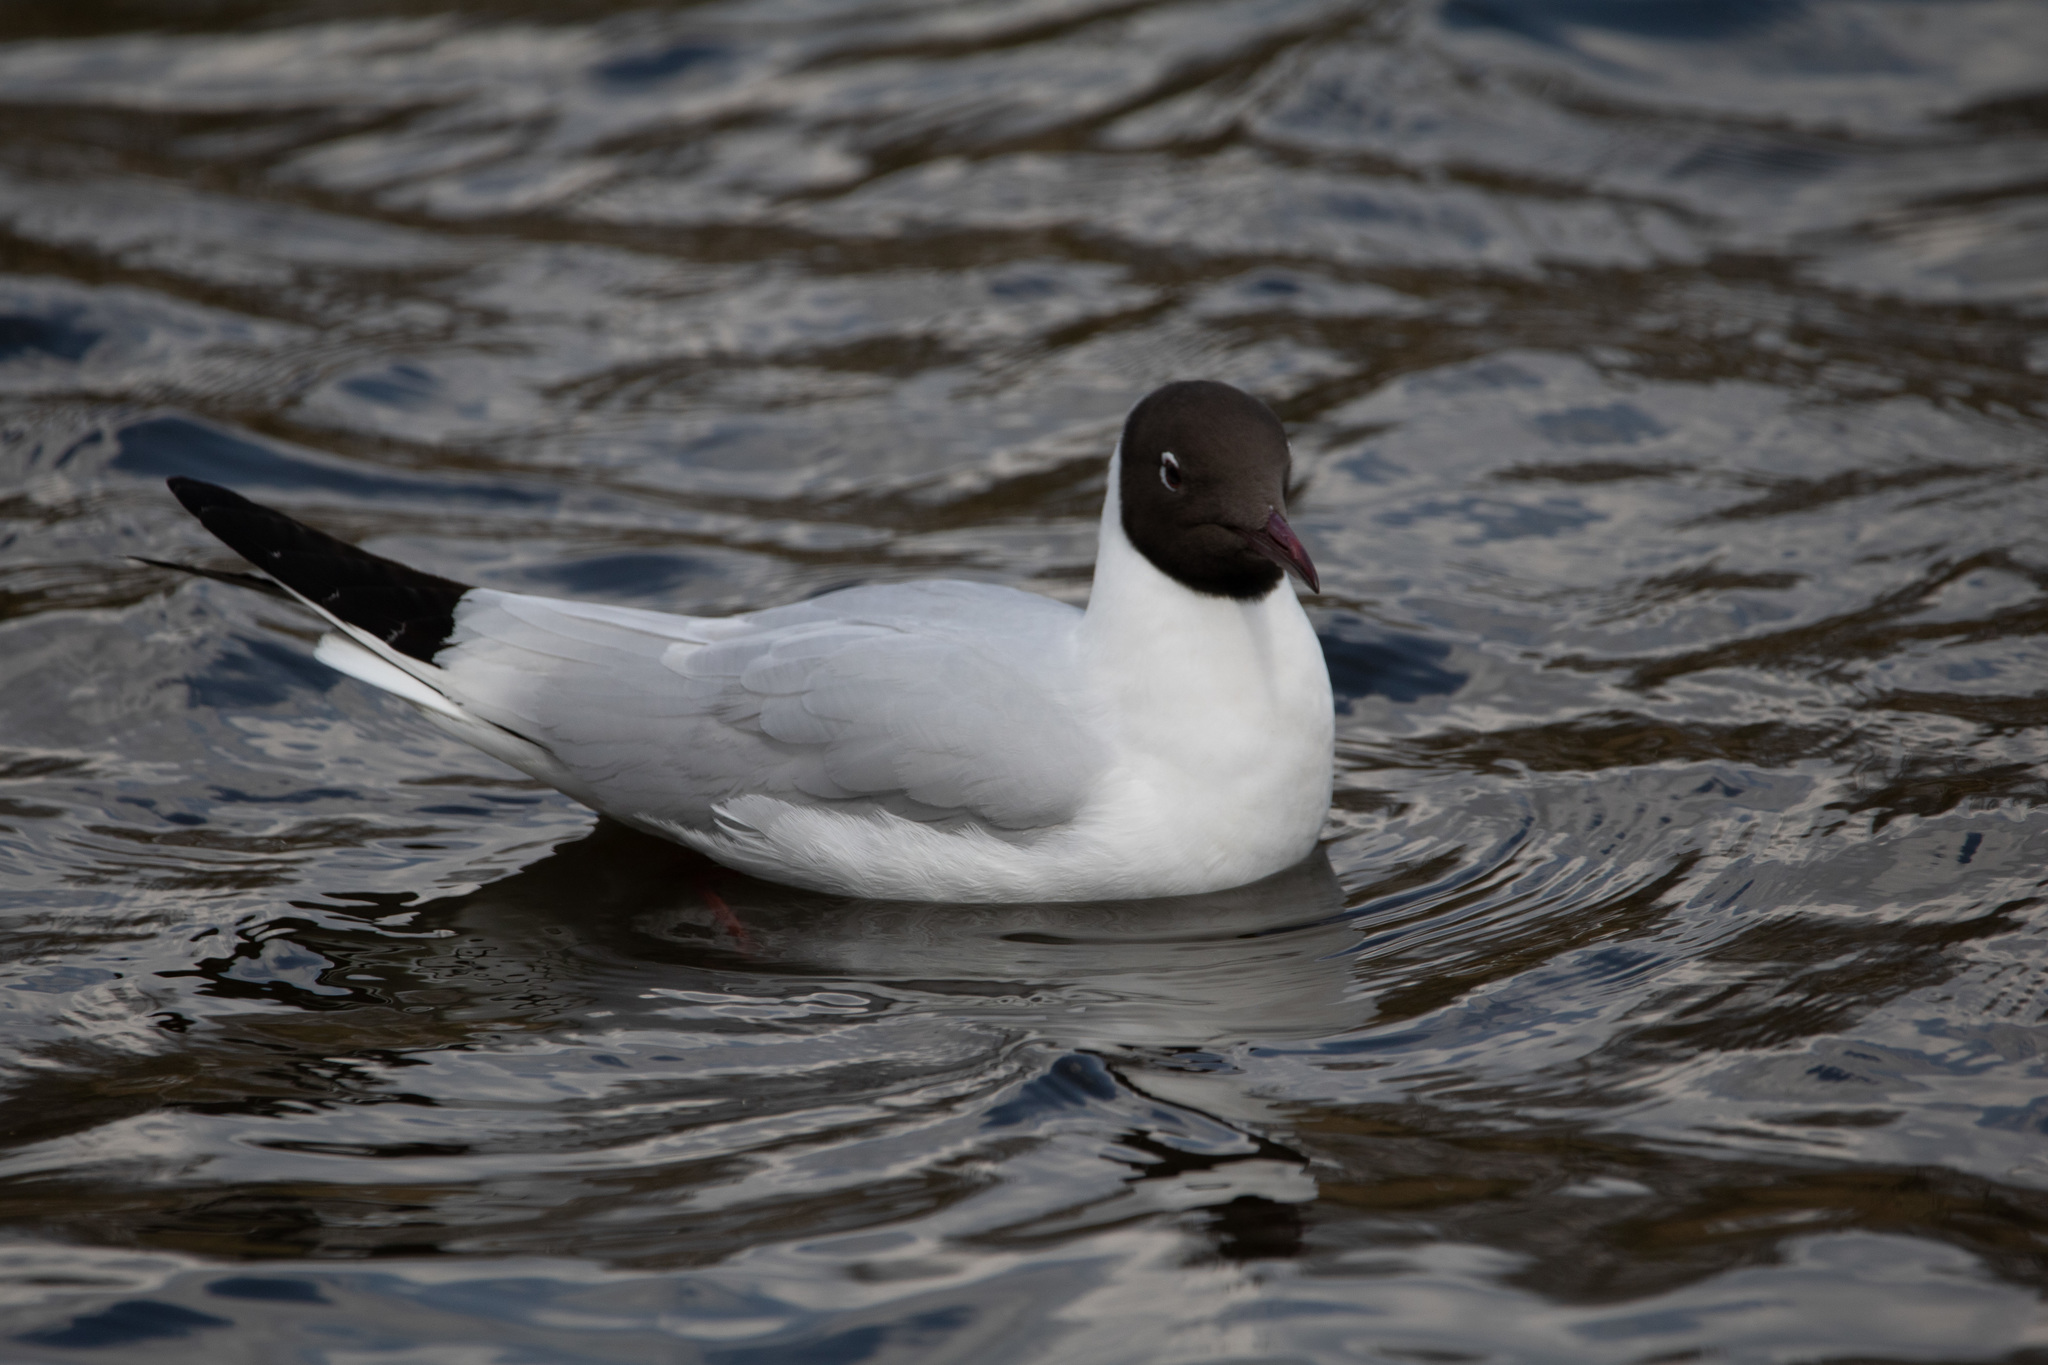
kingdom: Animalia
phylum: Chordata
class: Aves
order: Charadriiformes
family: Laridae
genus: Chroicocephalus
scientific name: Chroicocephalus ridibundus
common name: Black-headed gull
